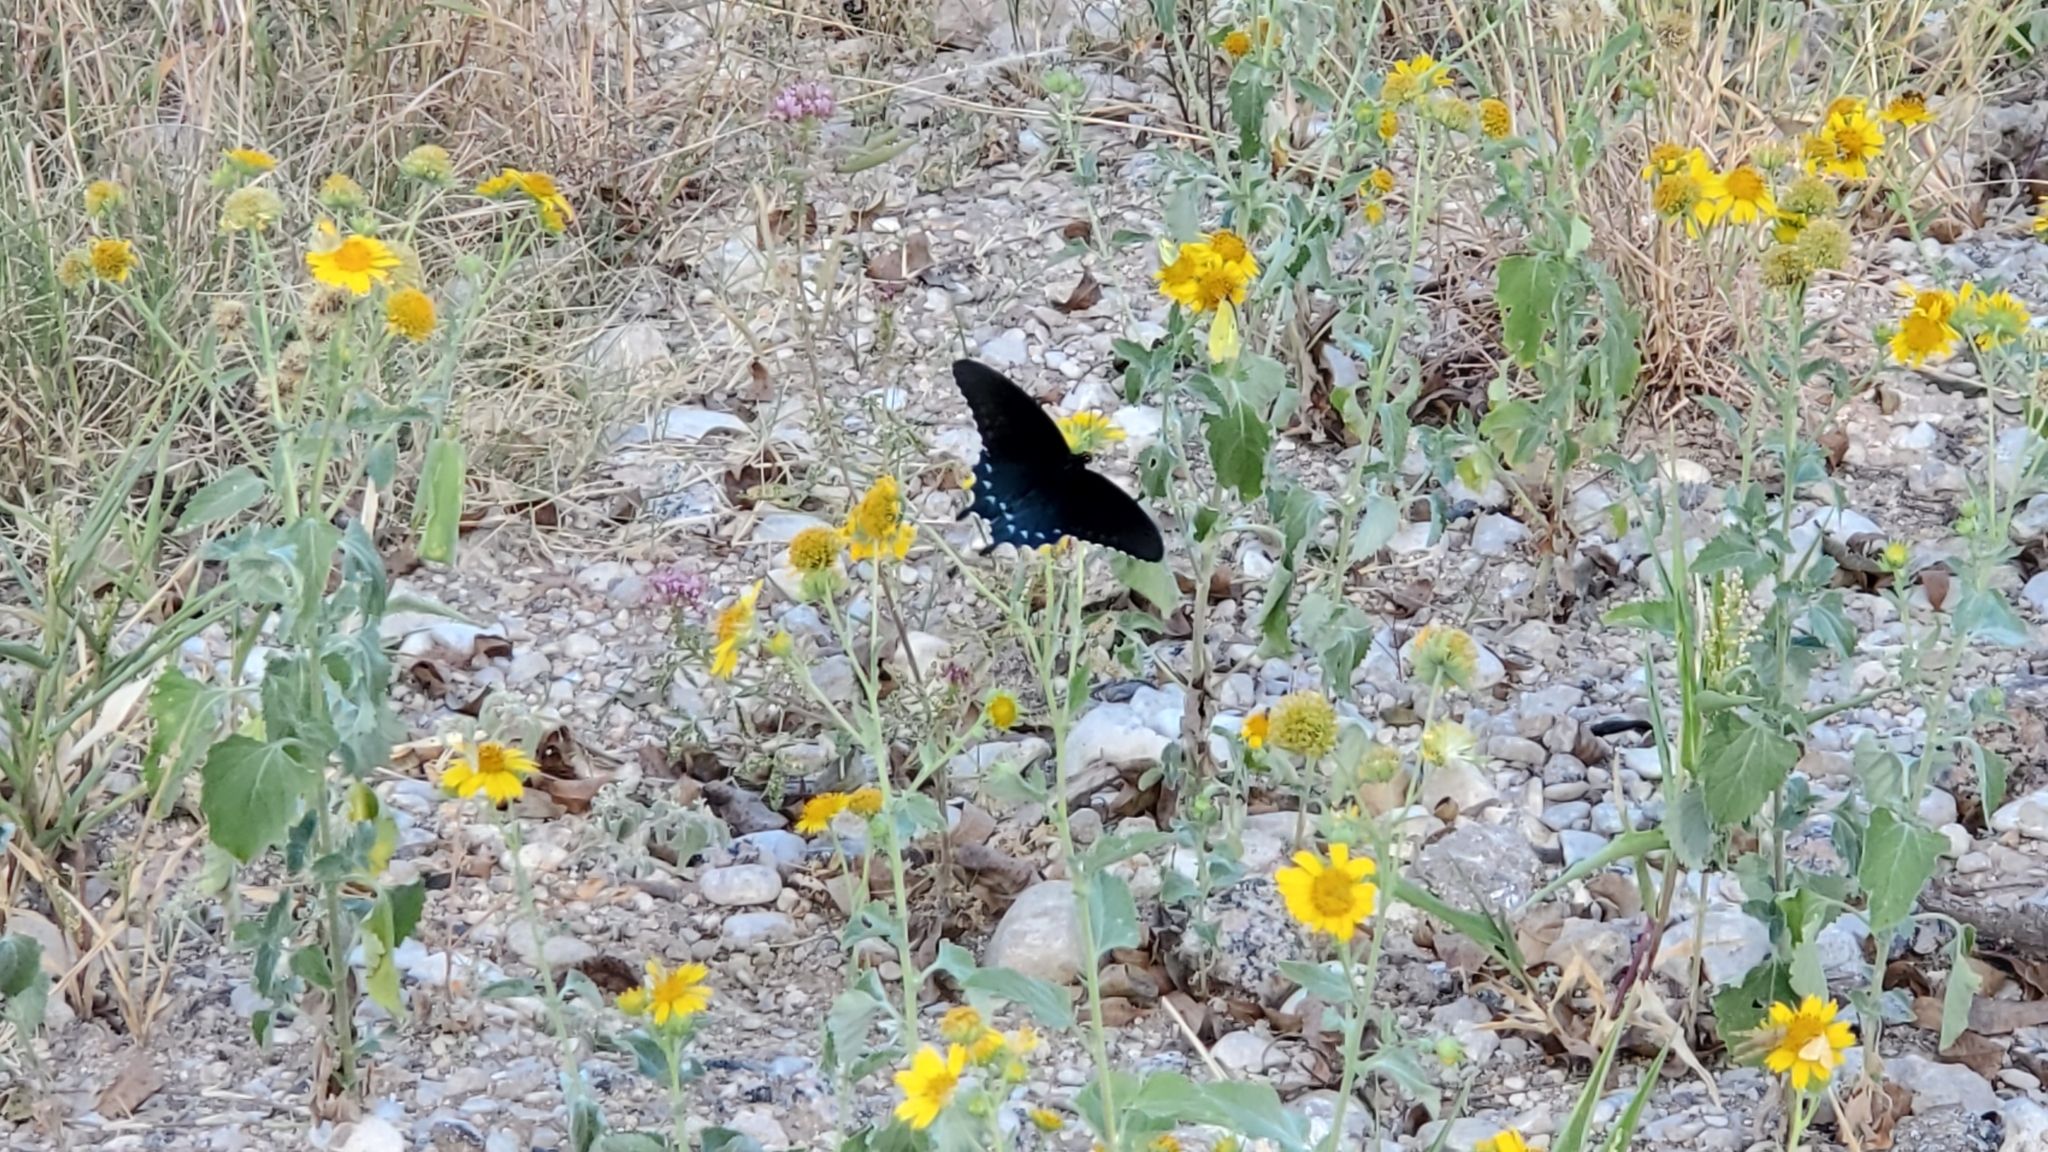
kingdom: Animalia
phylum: Arthropoda
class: Insecta
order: Lepidoptera
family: Papilionidae
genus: Battus
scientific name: Battus philenor
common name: Pipevine swallowtail
